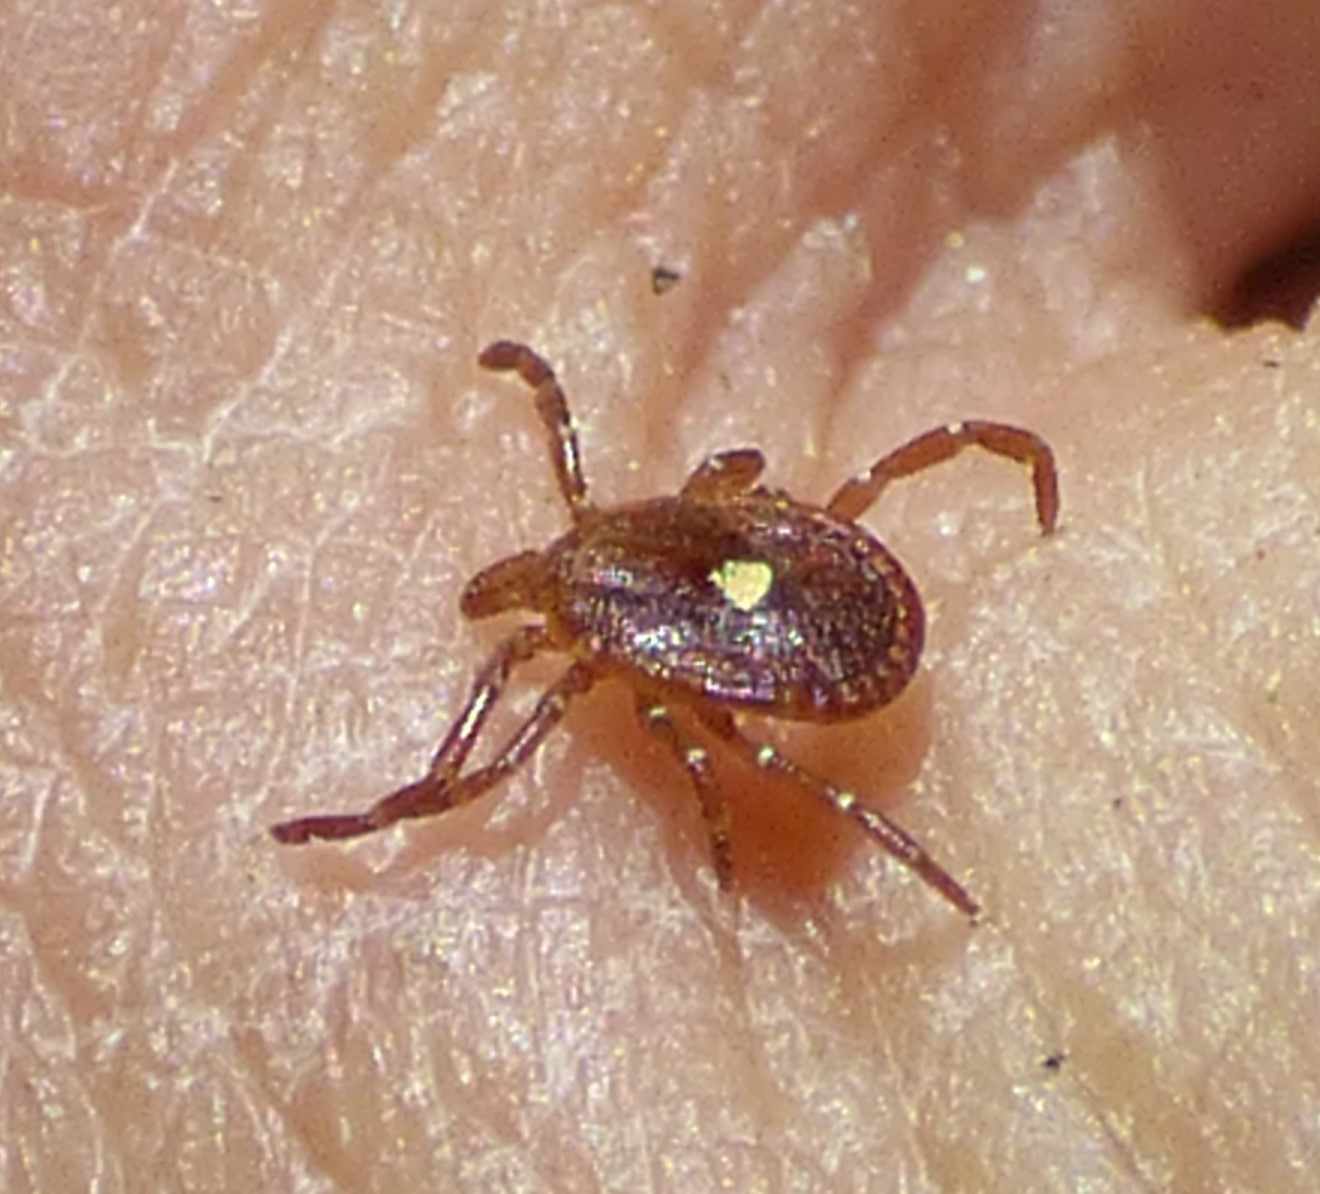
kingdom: Animalia
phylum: Arthropoda
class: Arachnida
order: Ixodida
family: Ixodidae
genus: Amblyomma
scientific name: Amblyomma americanum
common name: Lone star tick
